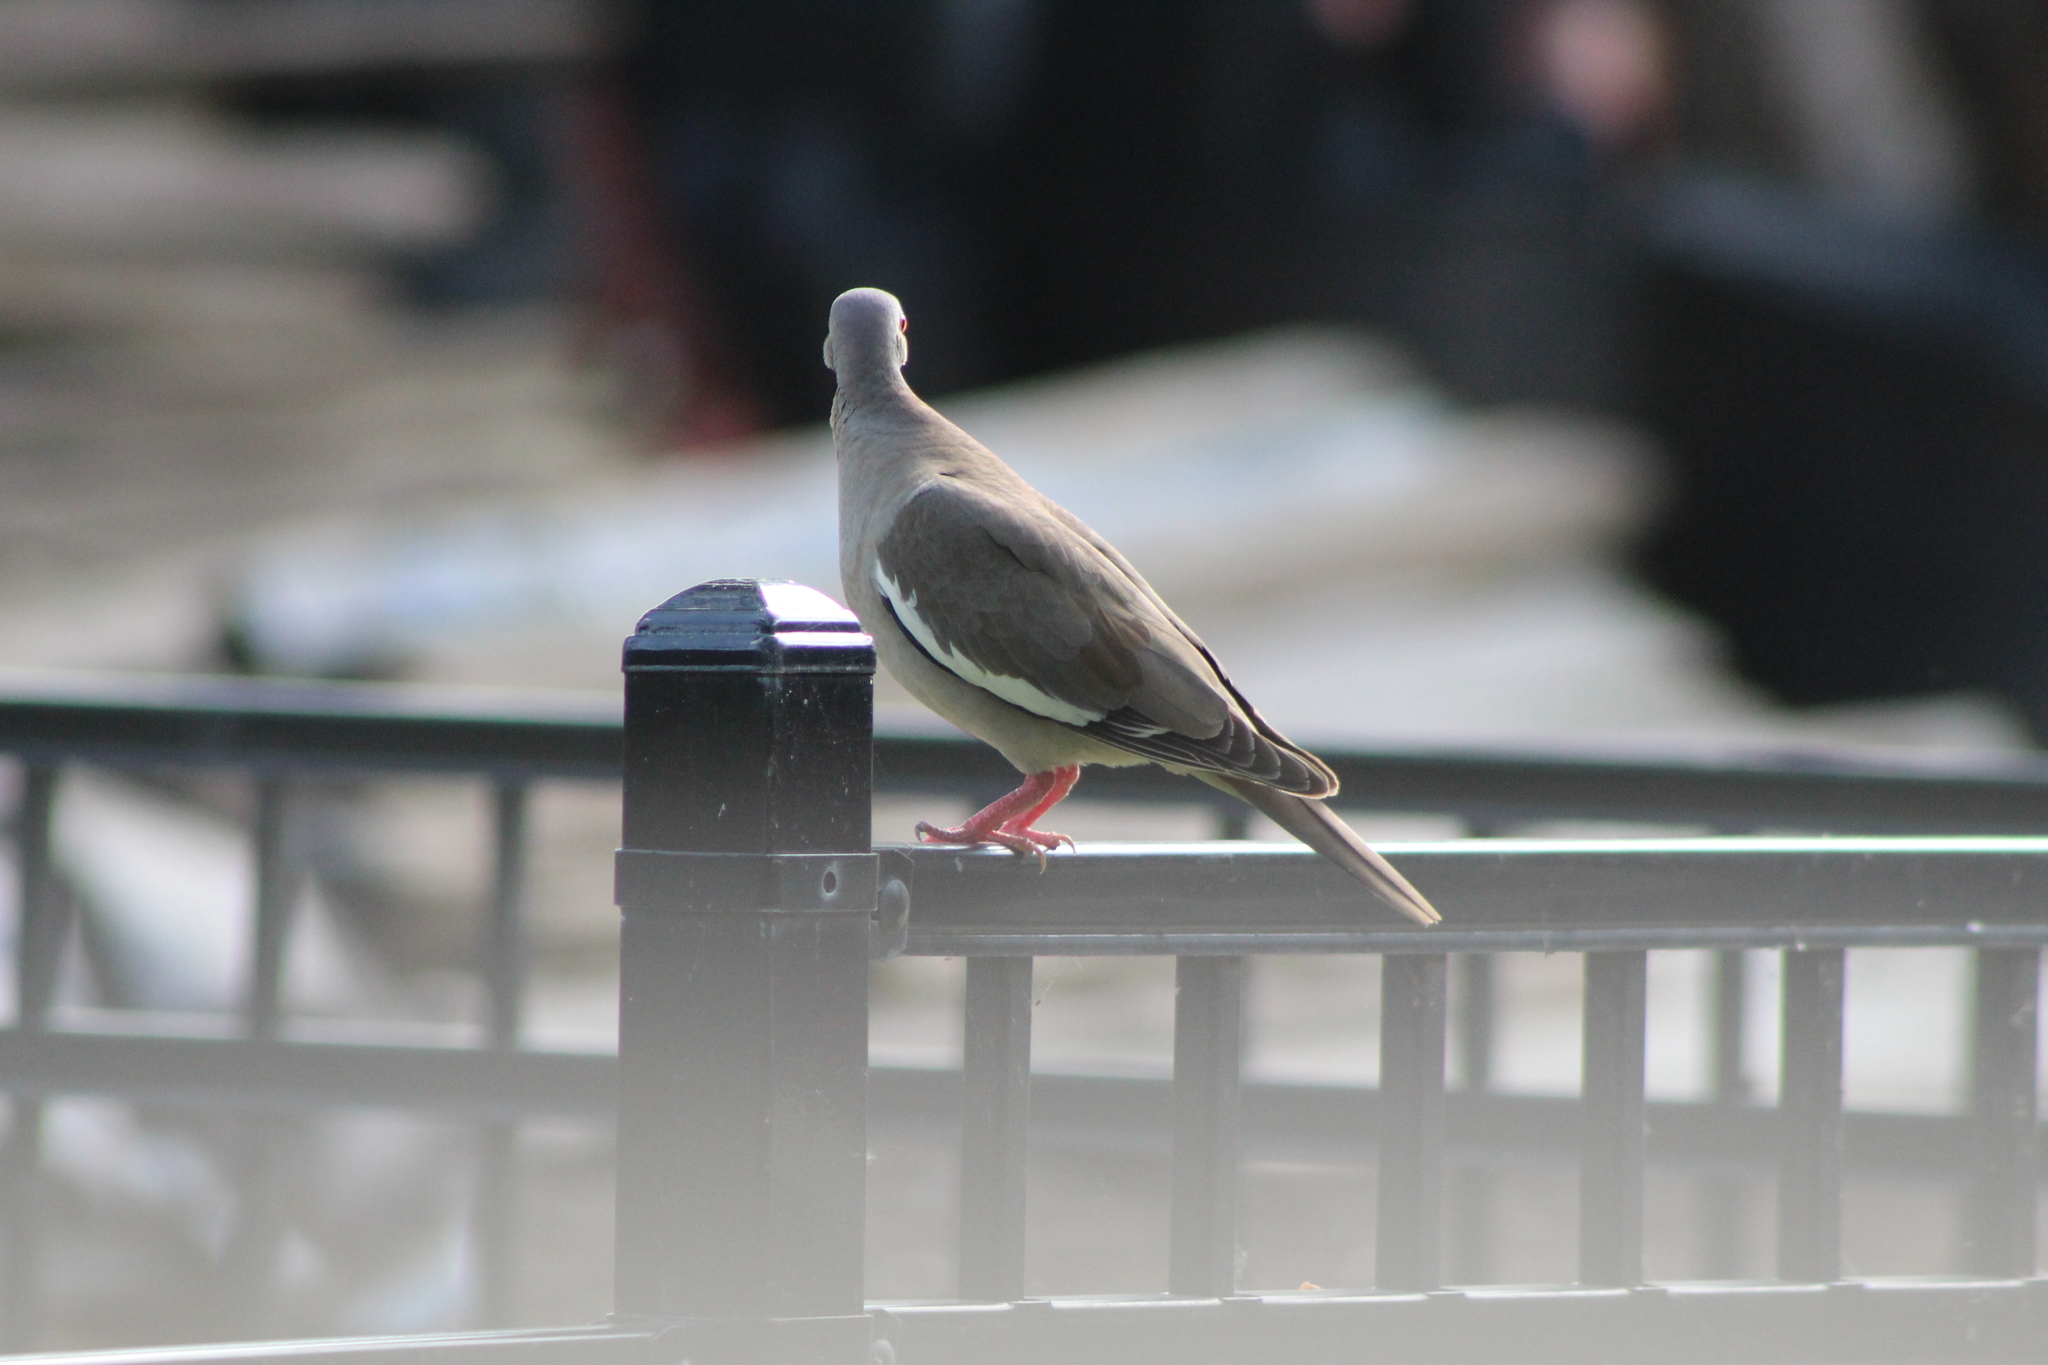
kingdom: Animalia
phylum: Chordata
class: Aves
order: Columbiformes
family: Columbidae
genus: Zenaida
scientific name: Zenaida asiatica
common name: White-winged dove
